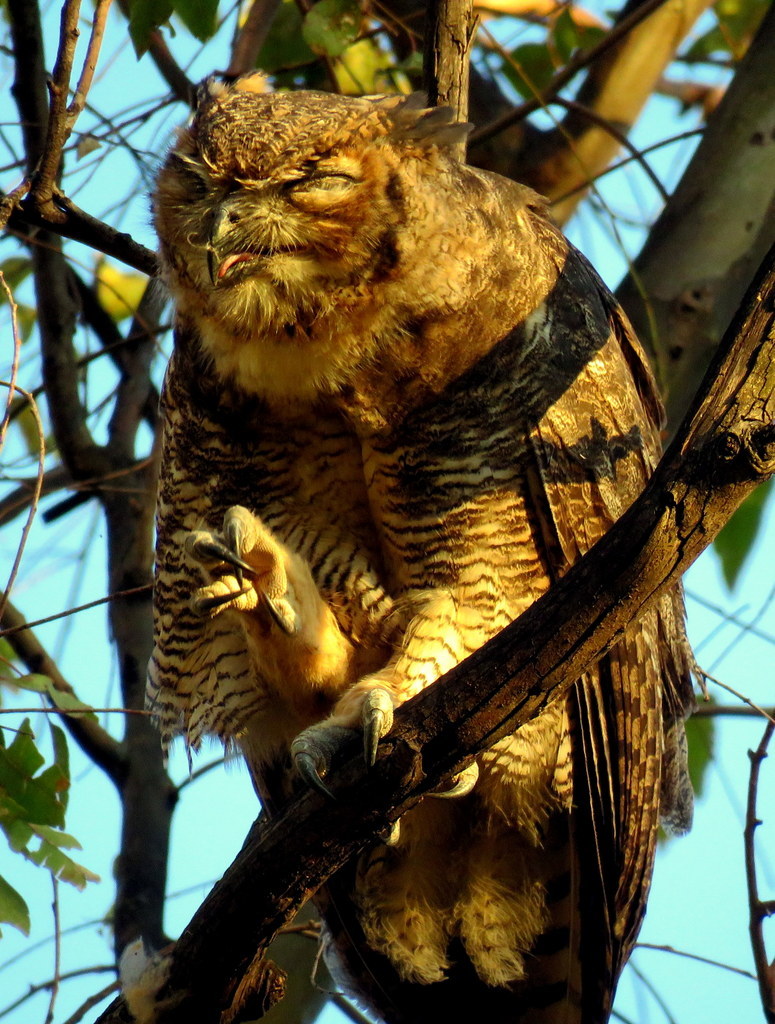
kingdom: Animalia
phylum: Chordata
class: Aves
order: Strigiformes
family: Strigidae
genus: Bubo
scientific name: Bubo virginianus
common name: Great horned owl
